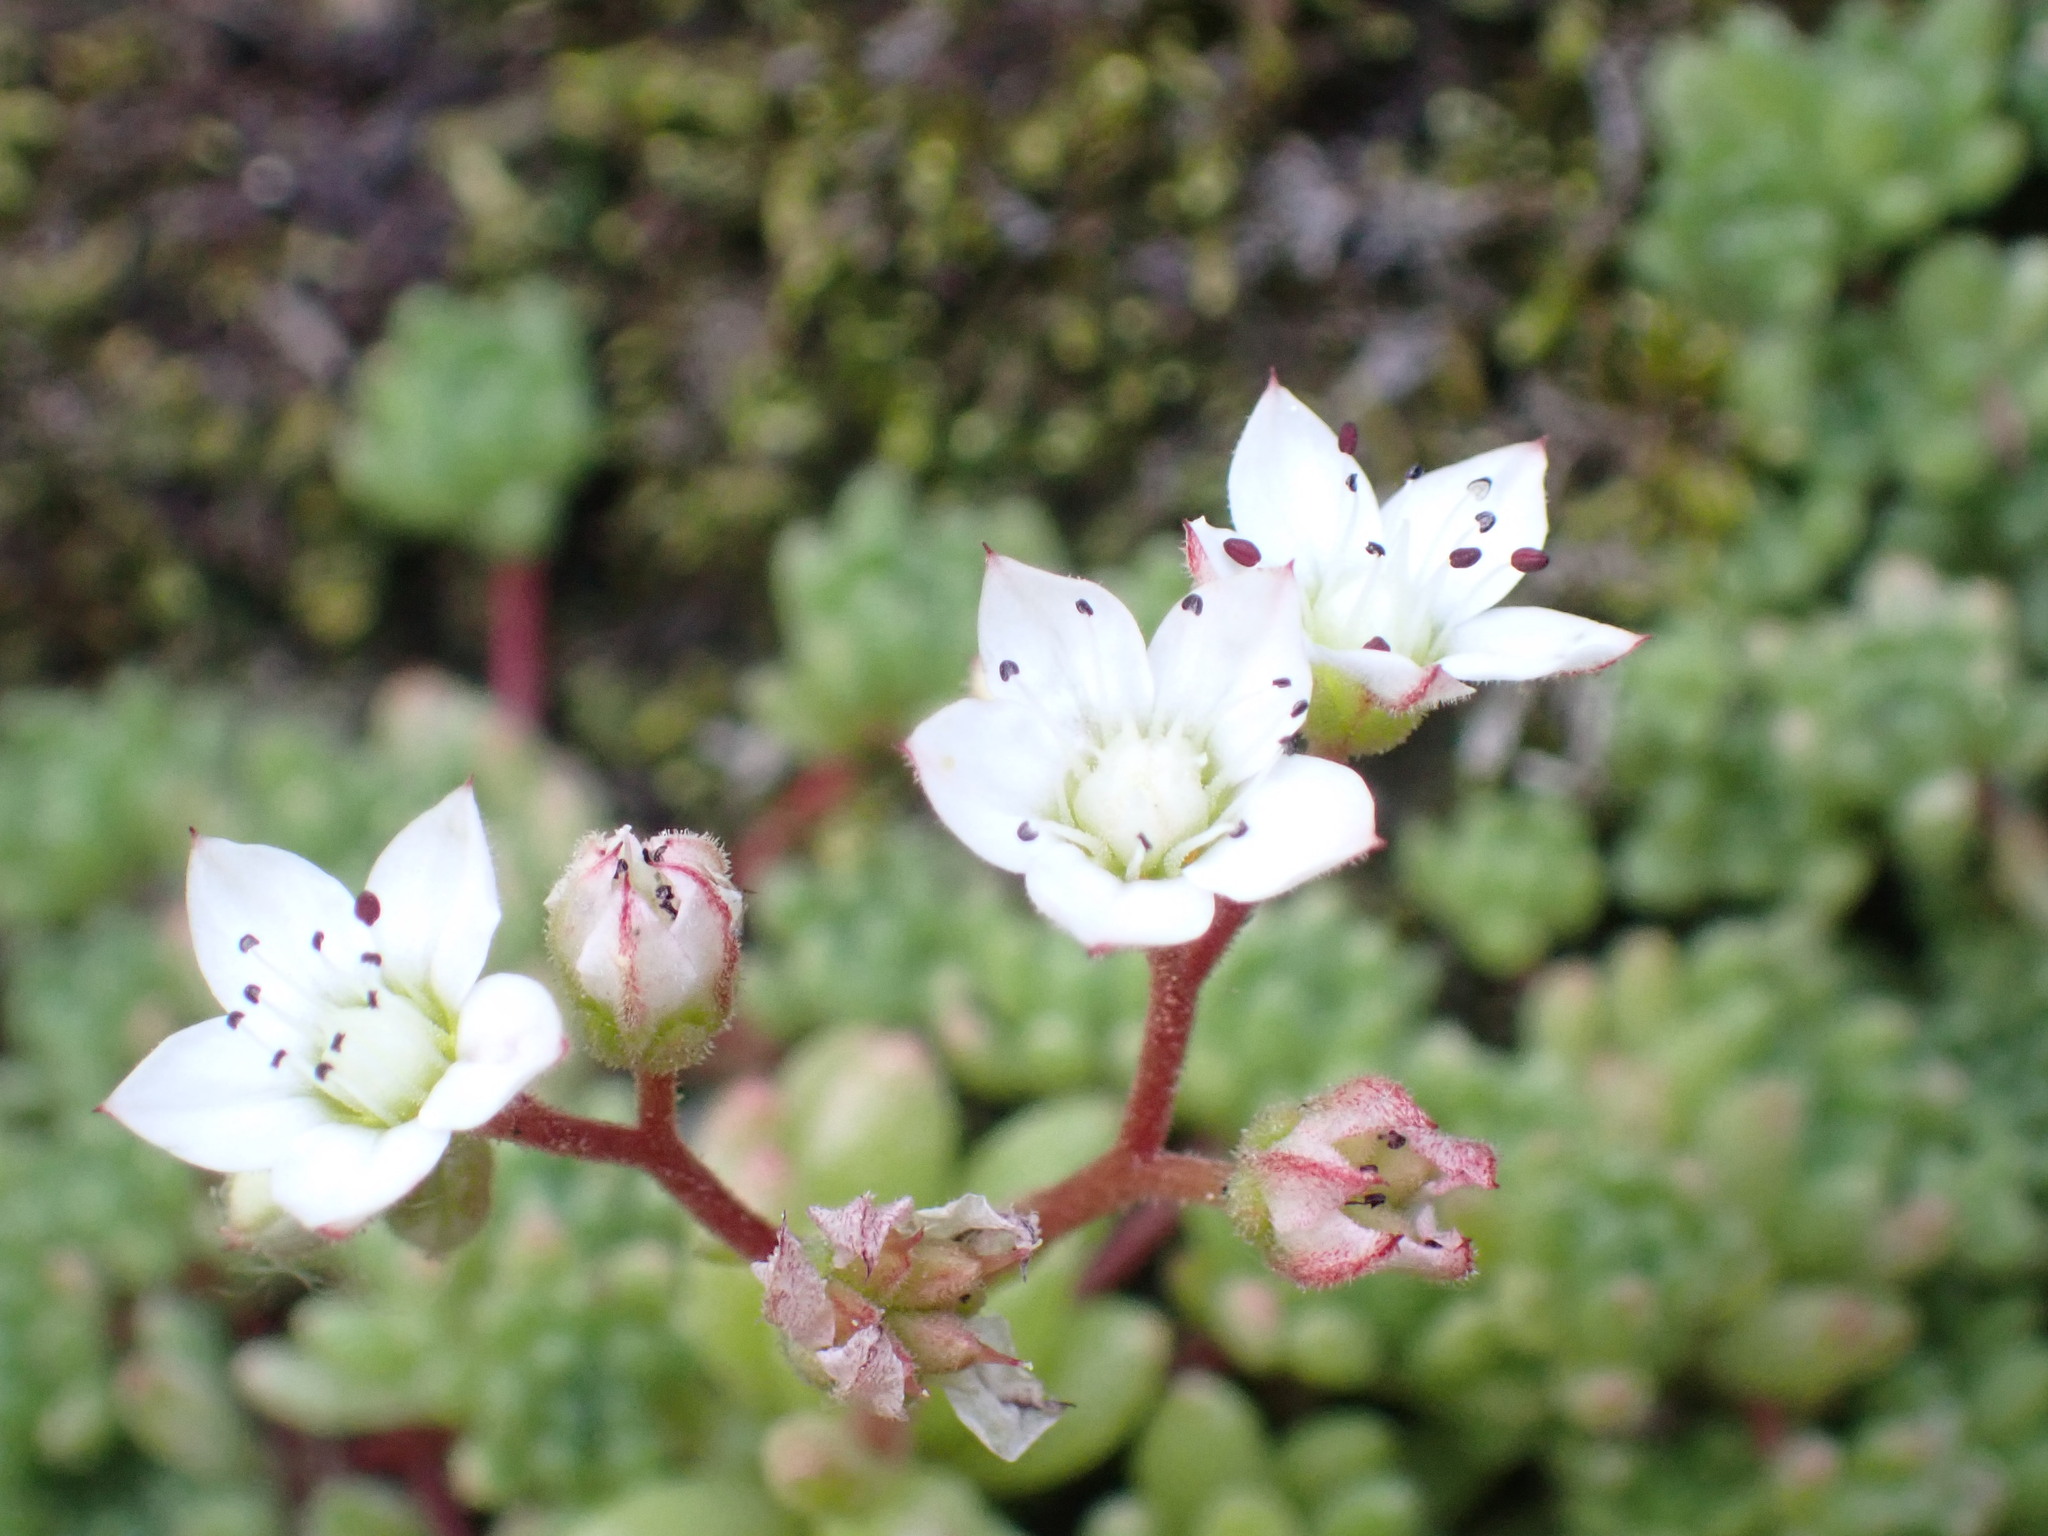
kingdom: Plantae
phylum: Tracheophyta
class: Magnoliopsida
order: Saxifragales
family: Crassulaceae
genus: Sedum
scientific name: Sedum hirsutum
